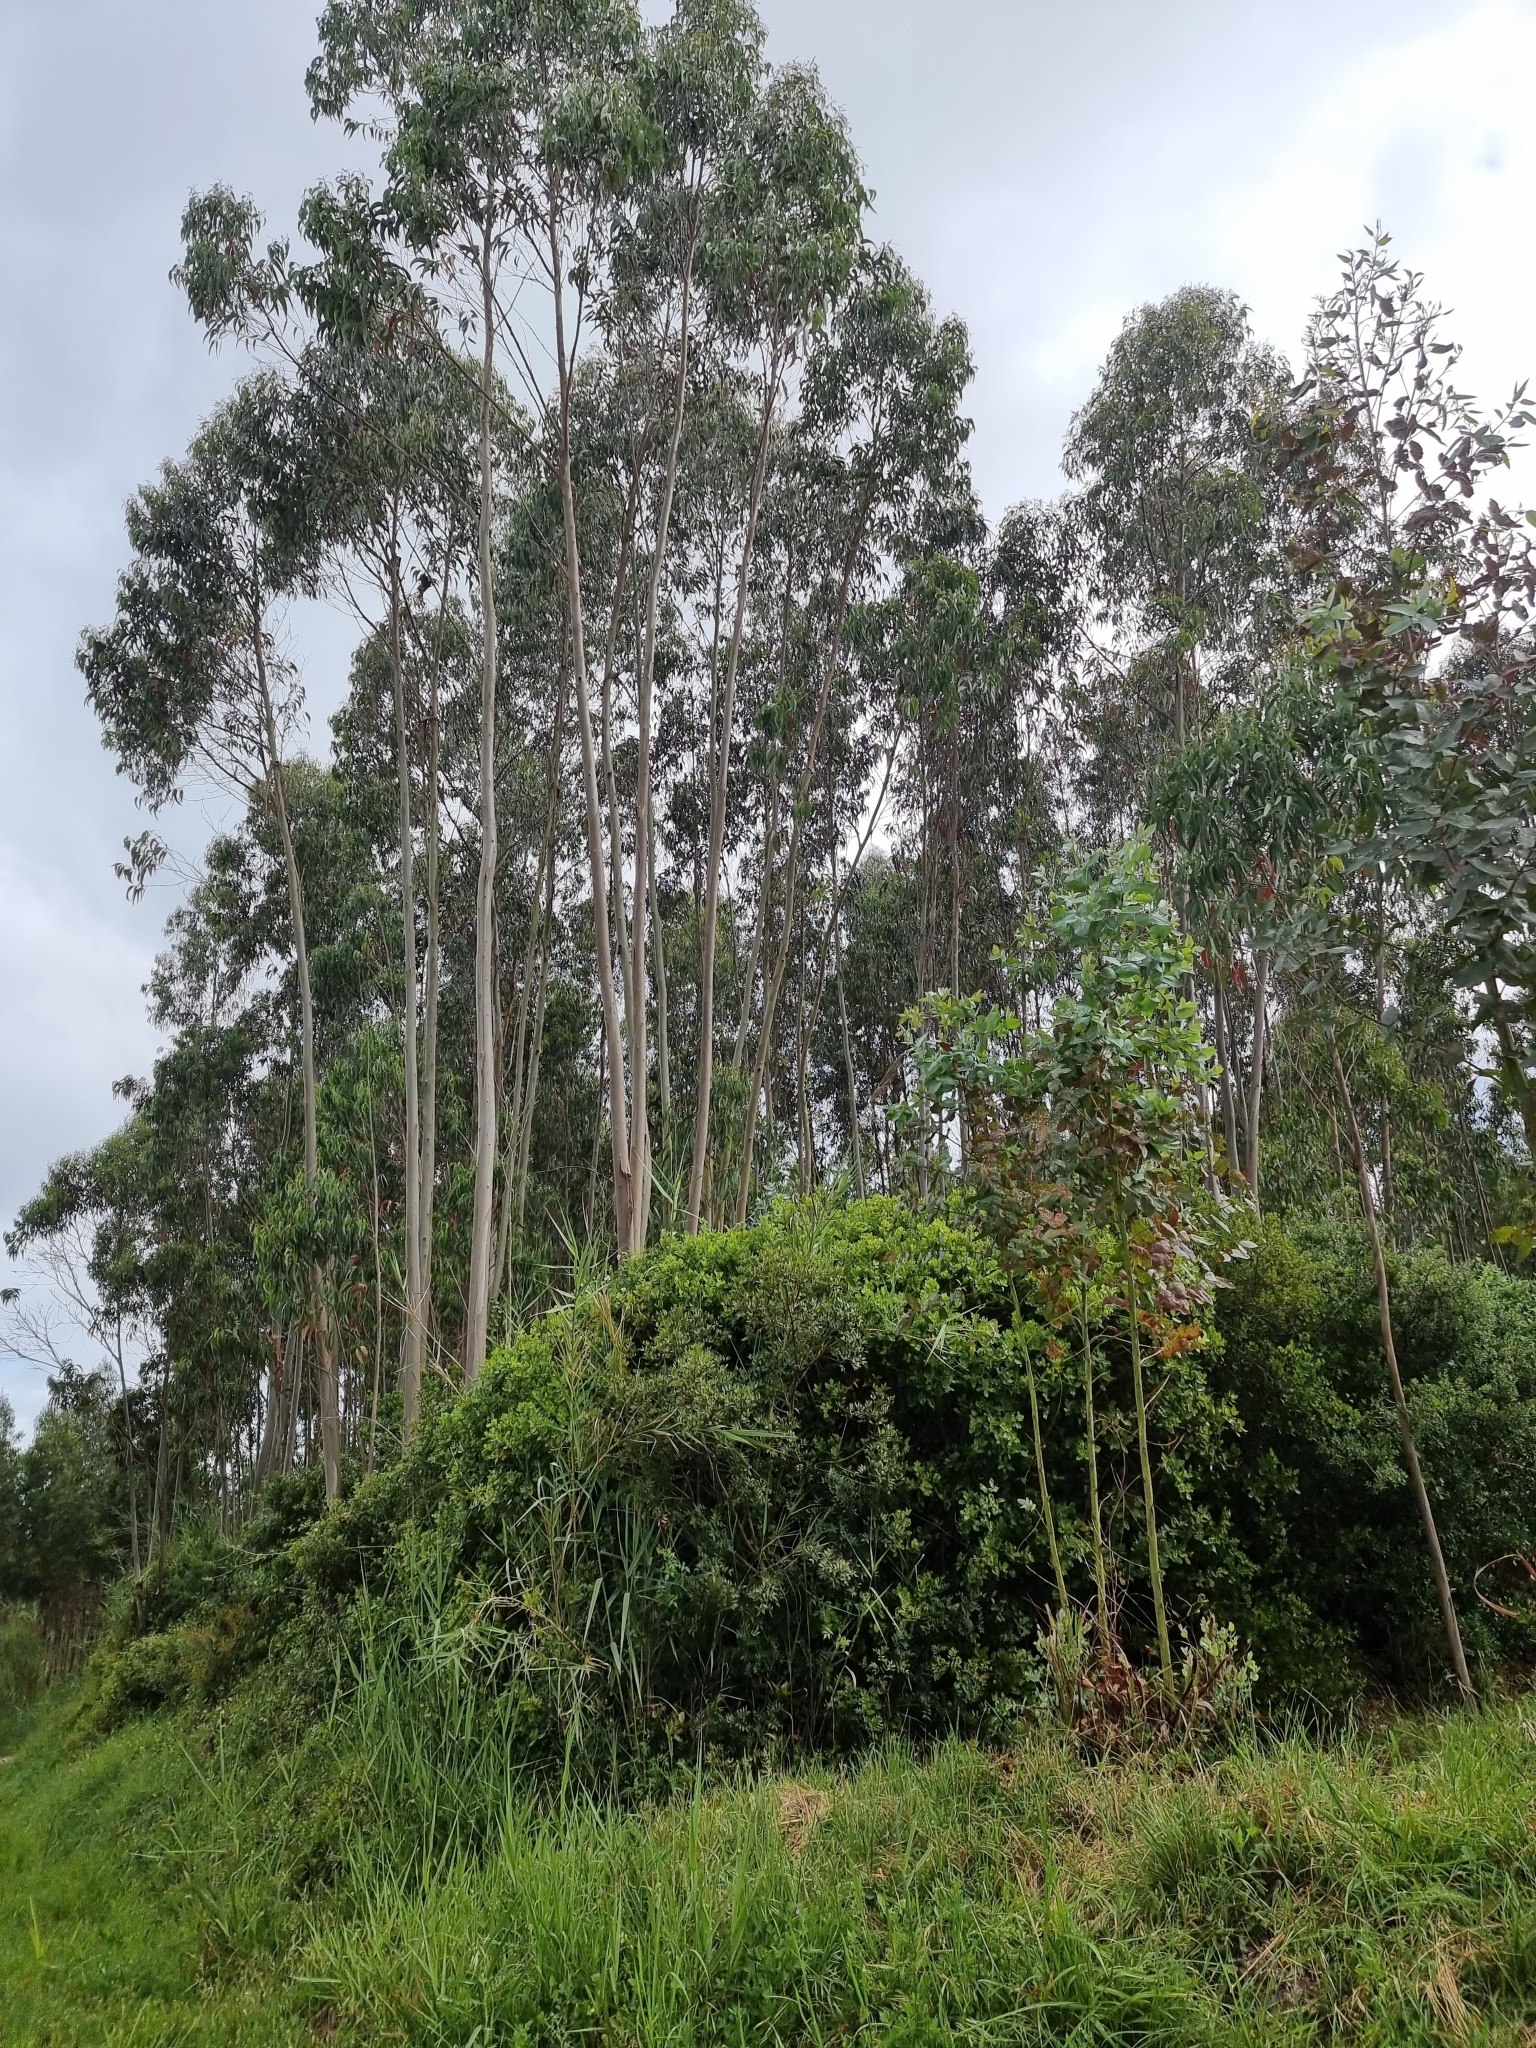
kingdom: Plantae
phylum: Tracheophyta
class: Magnoliopsida
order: Myrtales
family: Myrtaceae
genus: Eucalyptus
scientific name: Eucalyptus globulus
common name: Southern blue-gum
